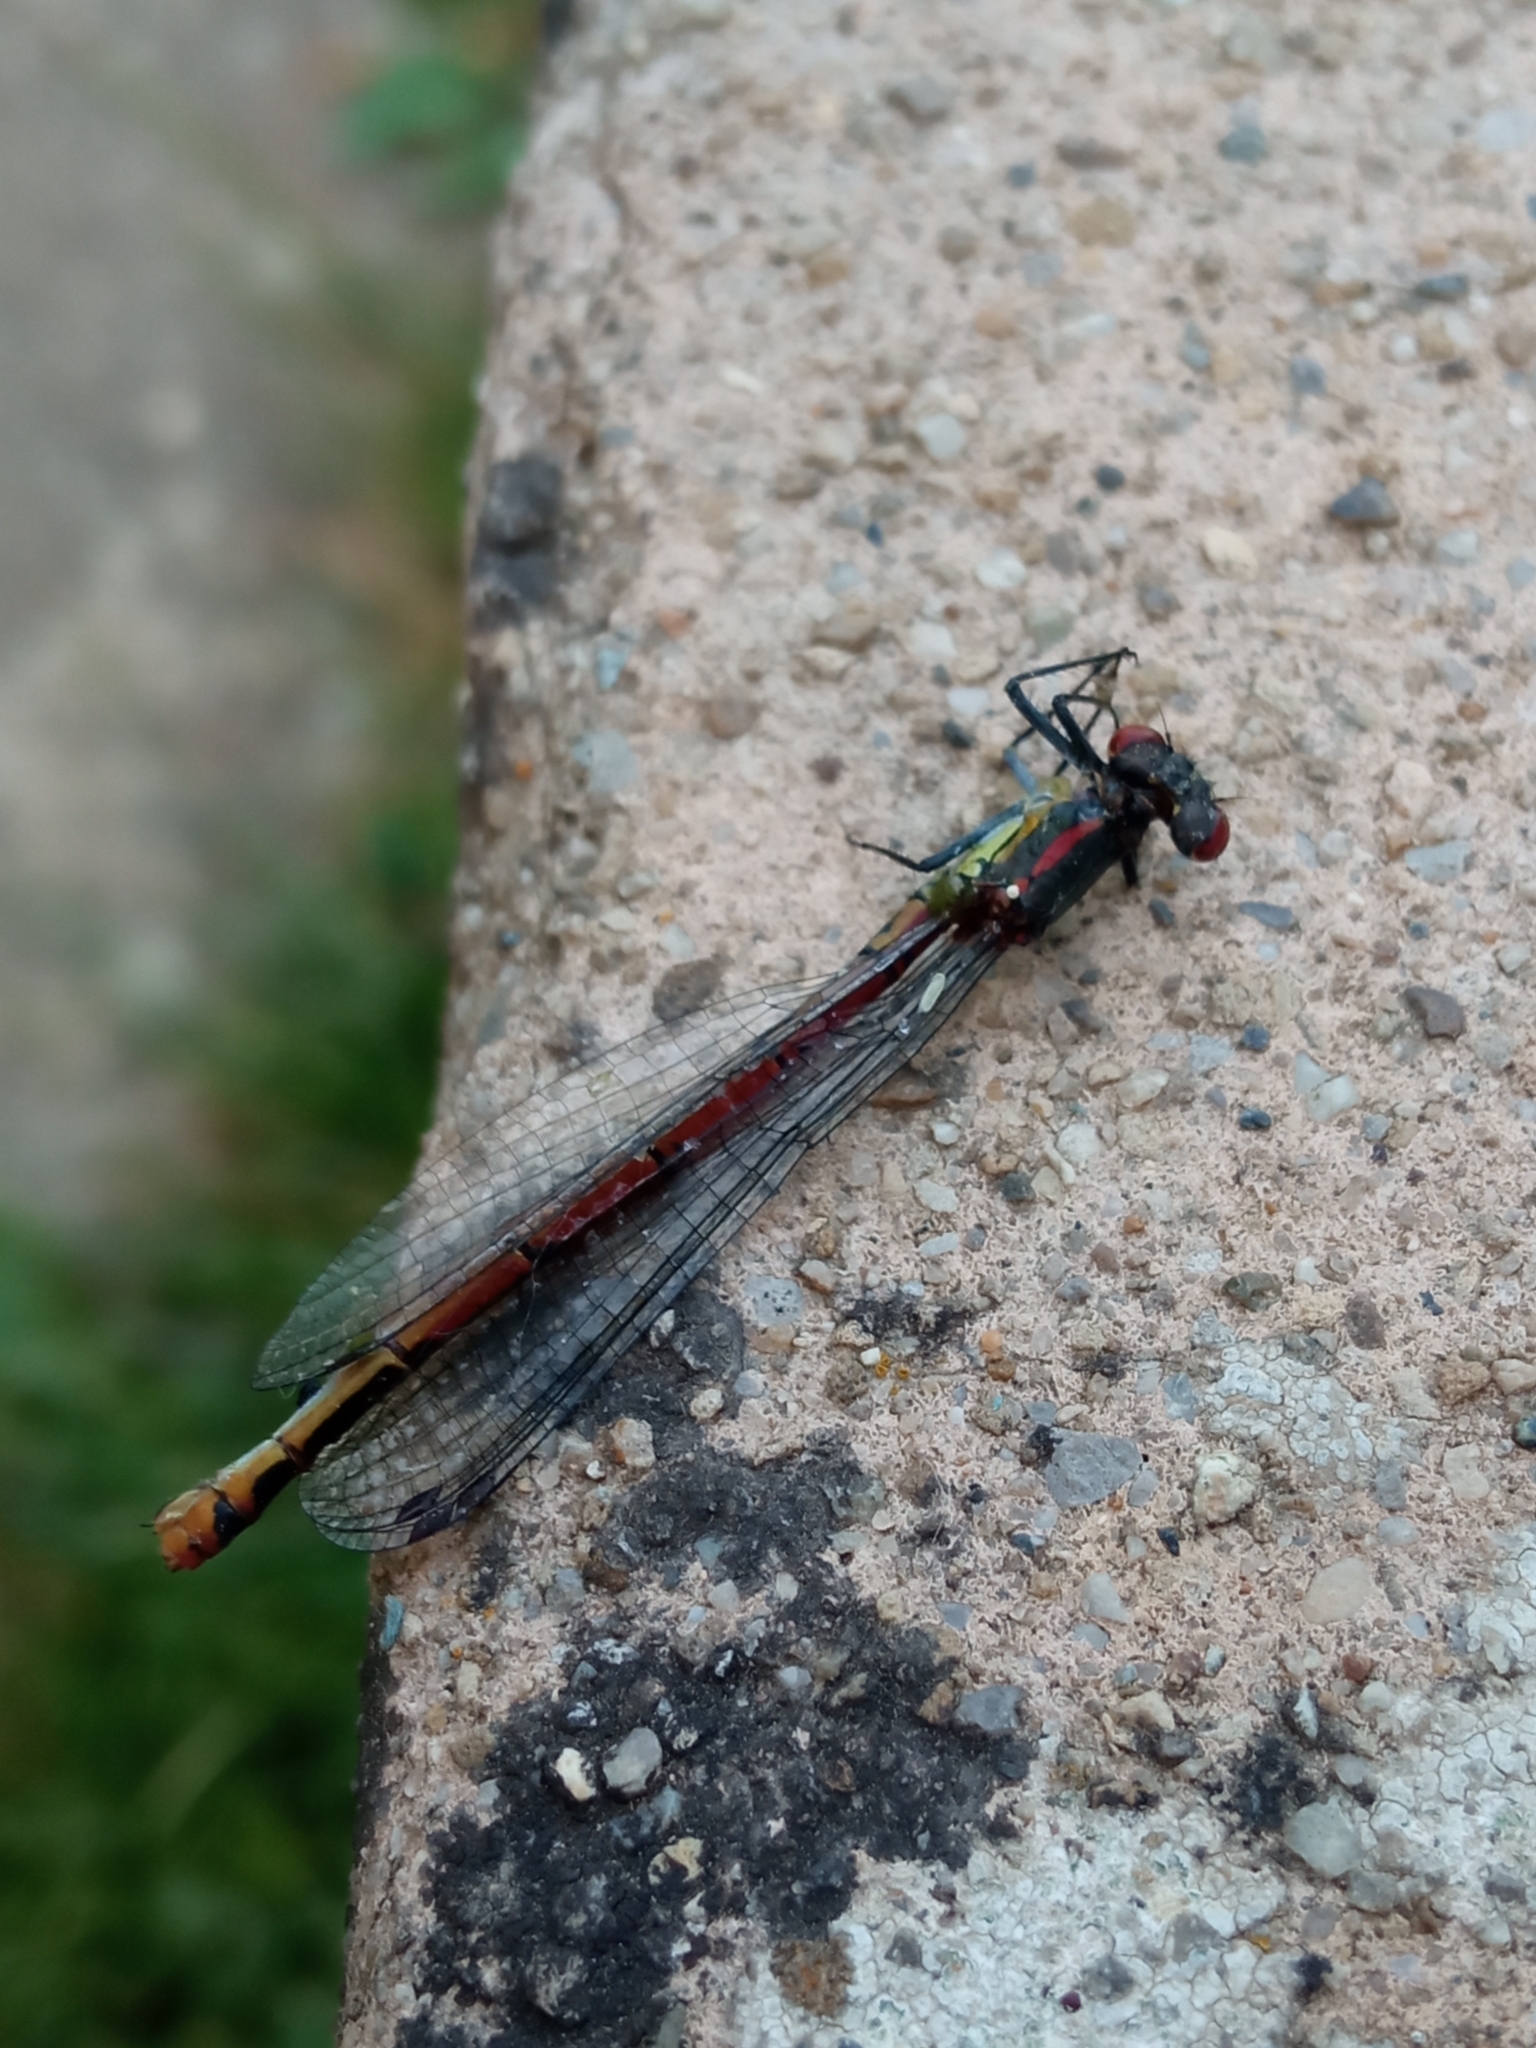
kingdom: Animalia
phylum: Arthropoda
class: Insecta
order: Odonata
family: Coenagrionidae
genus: Pyrrhosoma
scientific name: Pyrrhosoma nymphula
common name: Large red damsel
